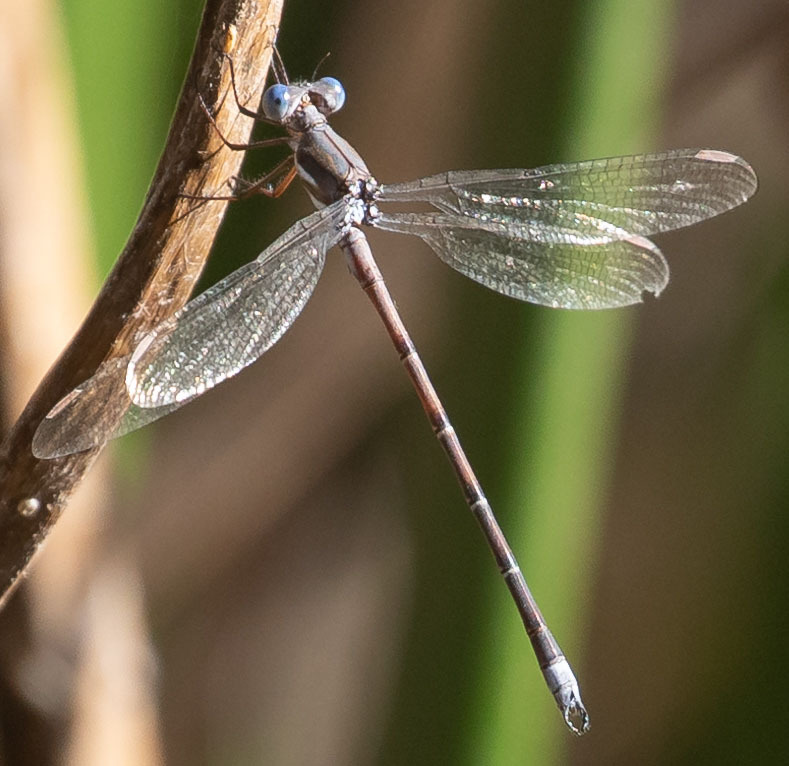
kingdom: Animalia
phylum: Arthropoda
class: Insecta
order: Odonata
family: Lestidae
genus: Archilestes
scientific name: Archilestes californicus
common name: California spreadwing
